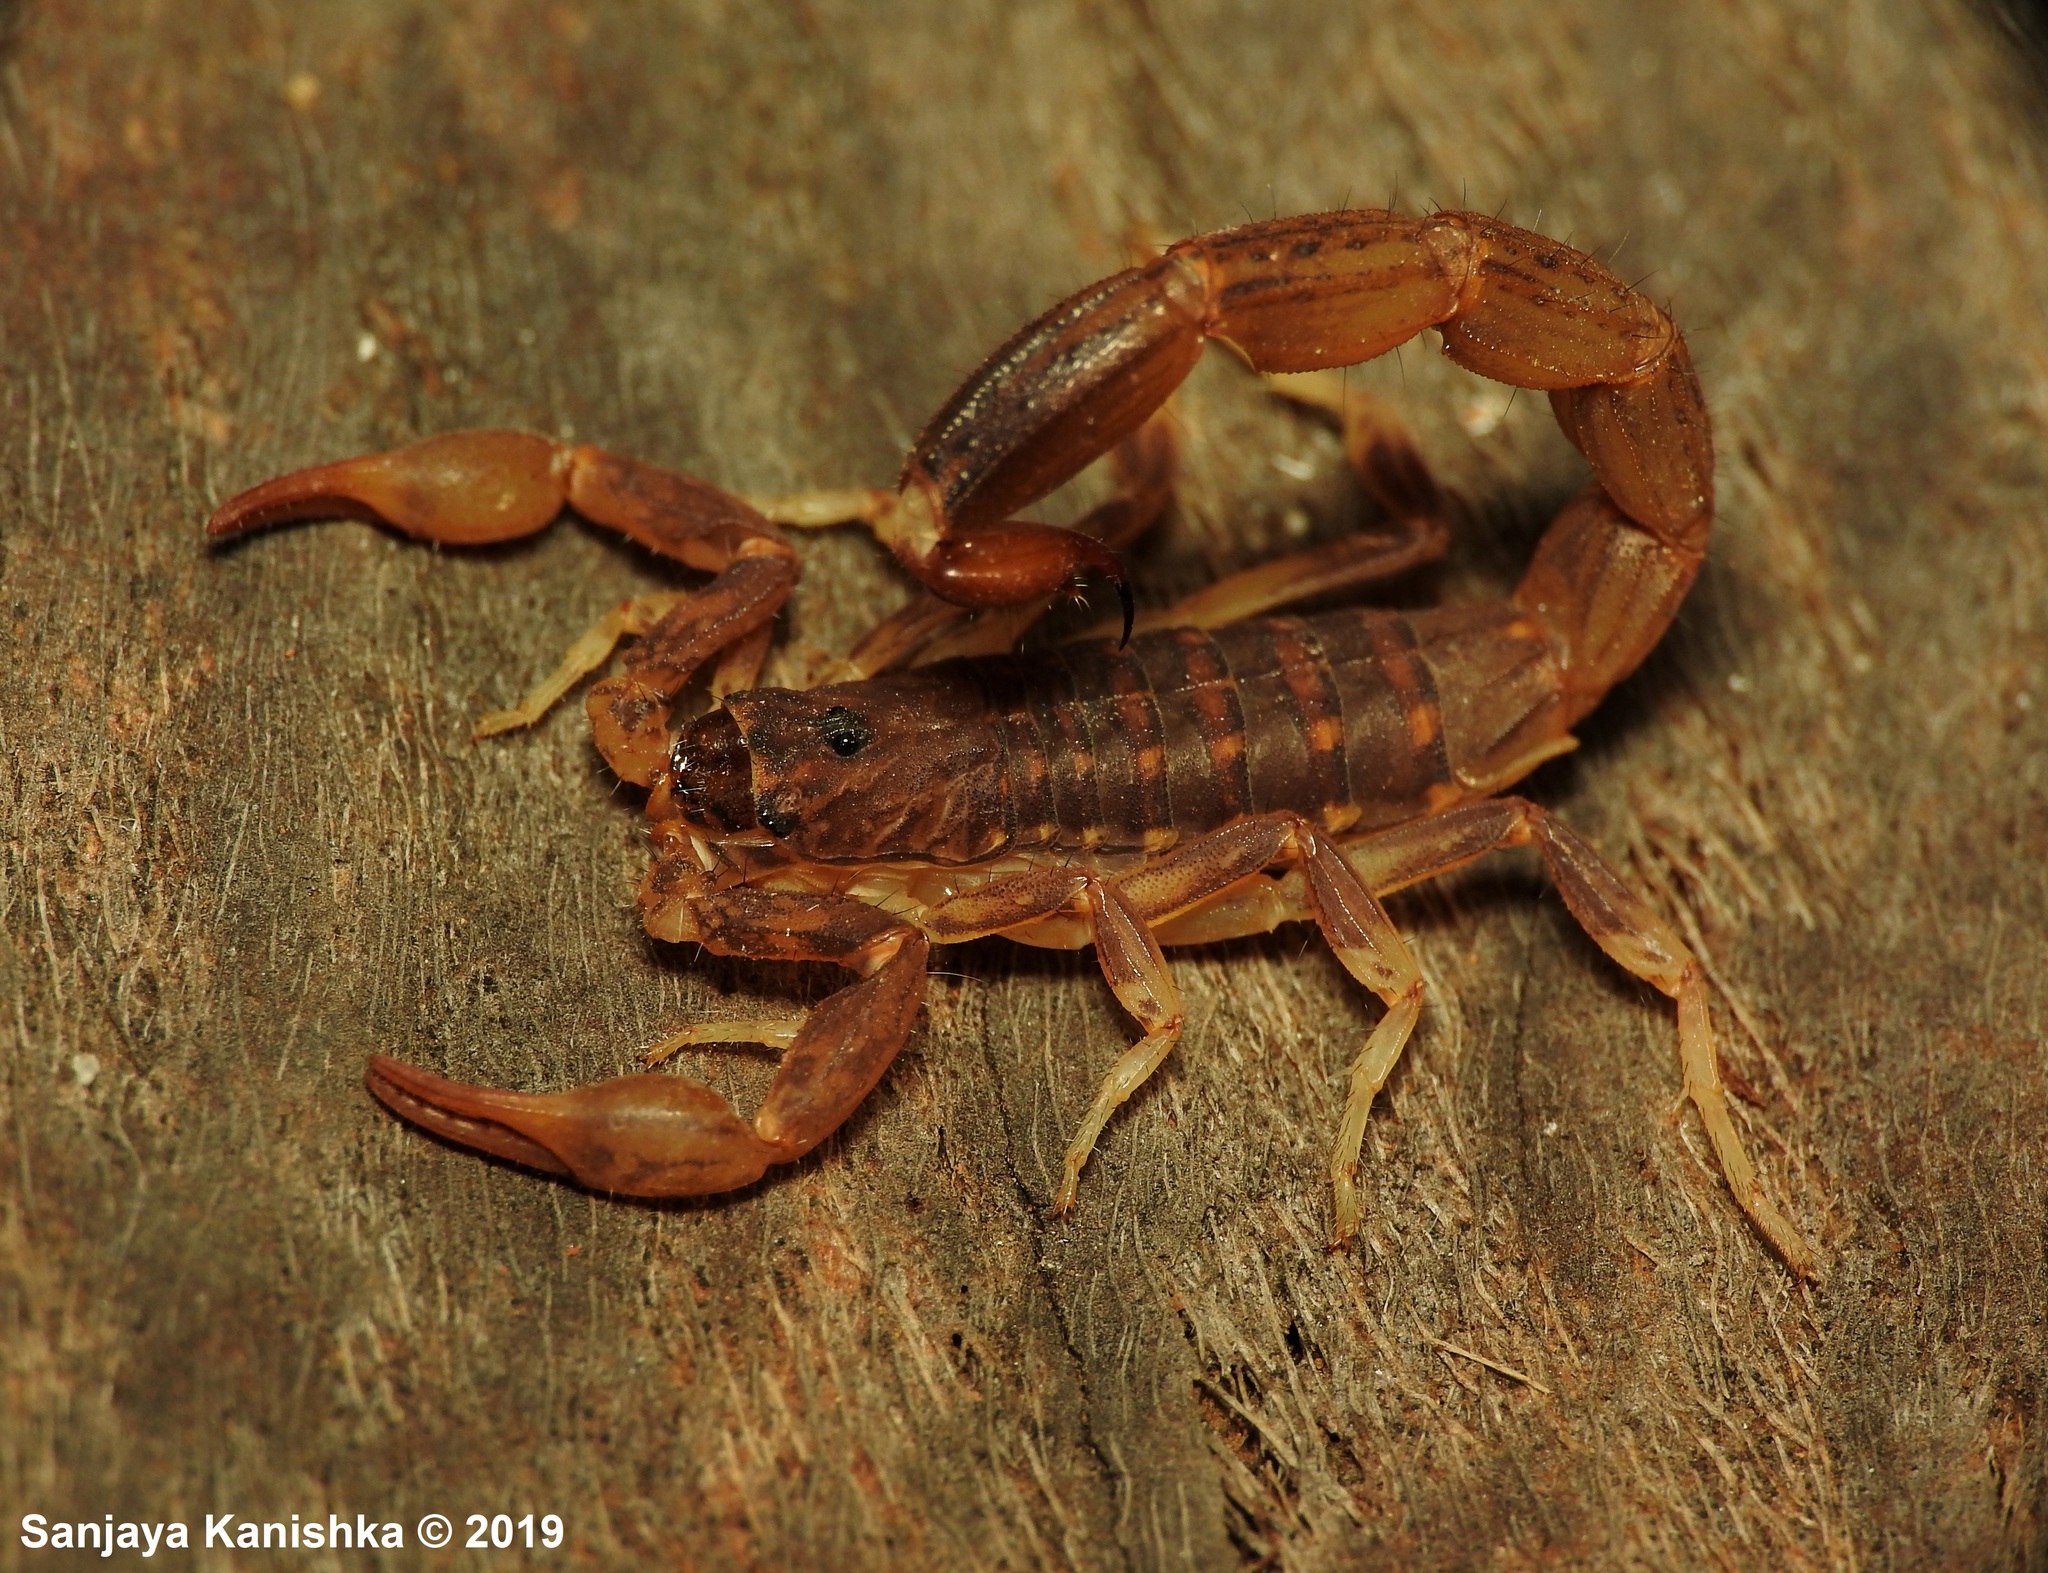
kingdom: Animalia
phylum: Arthropoda
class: Arachnida
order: Scorpiones
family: Buthidae
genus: Lychas
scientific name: Lychas srilankensis
